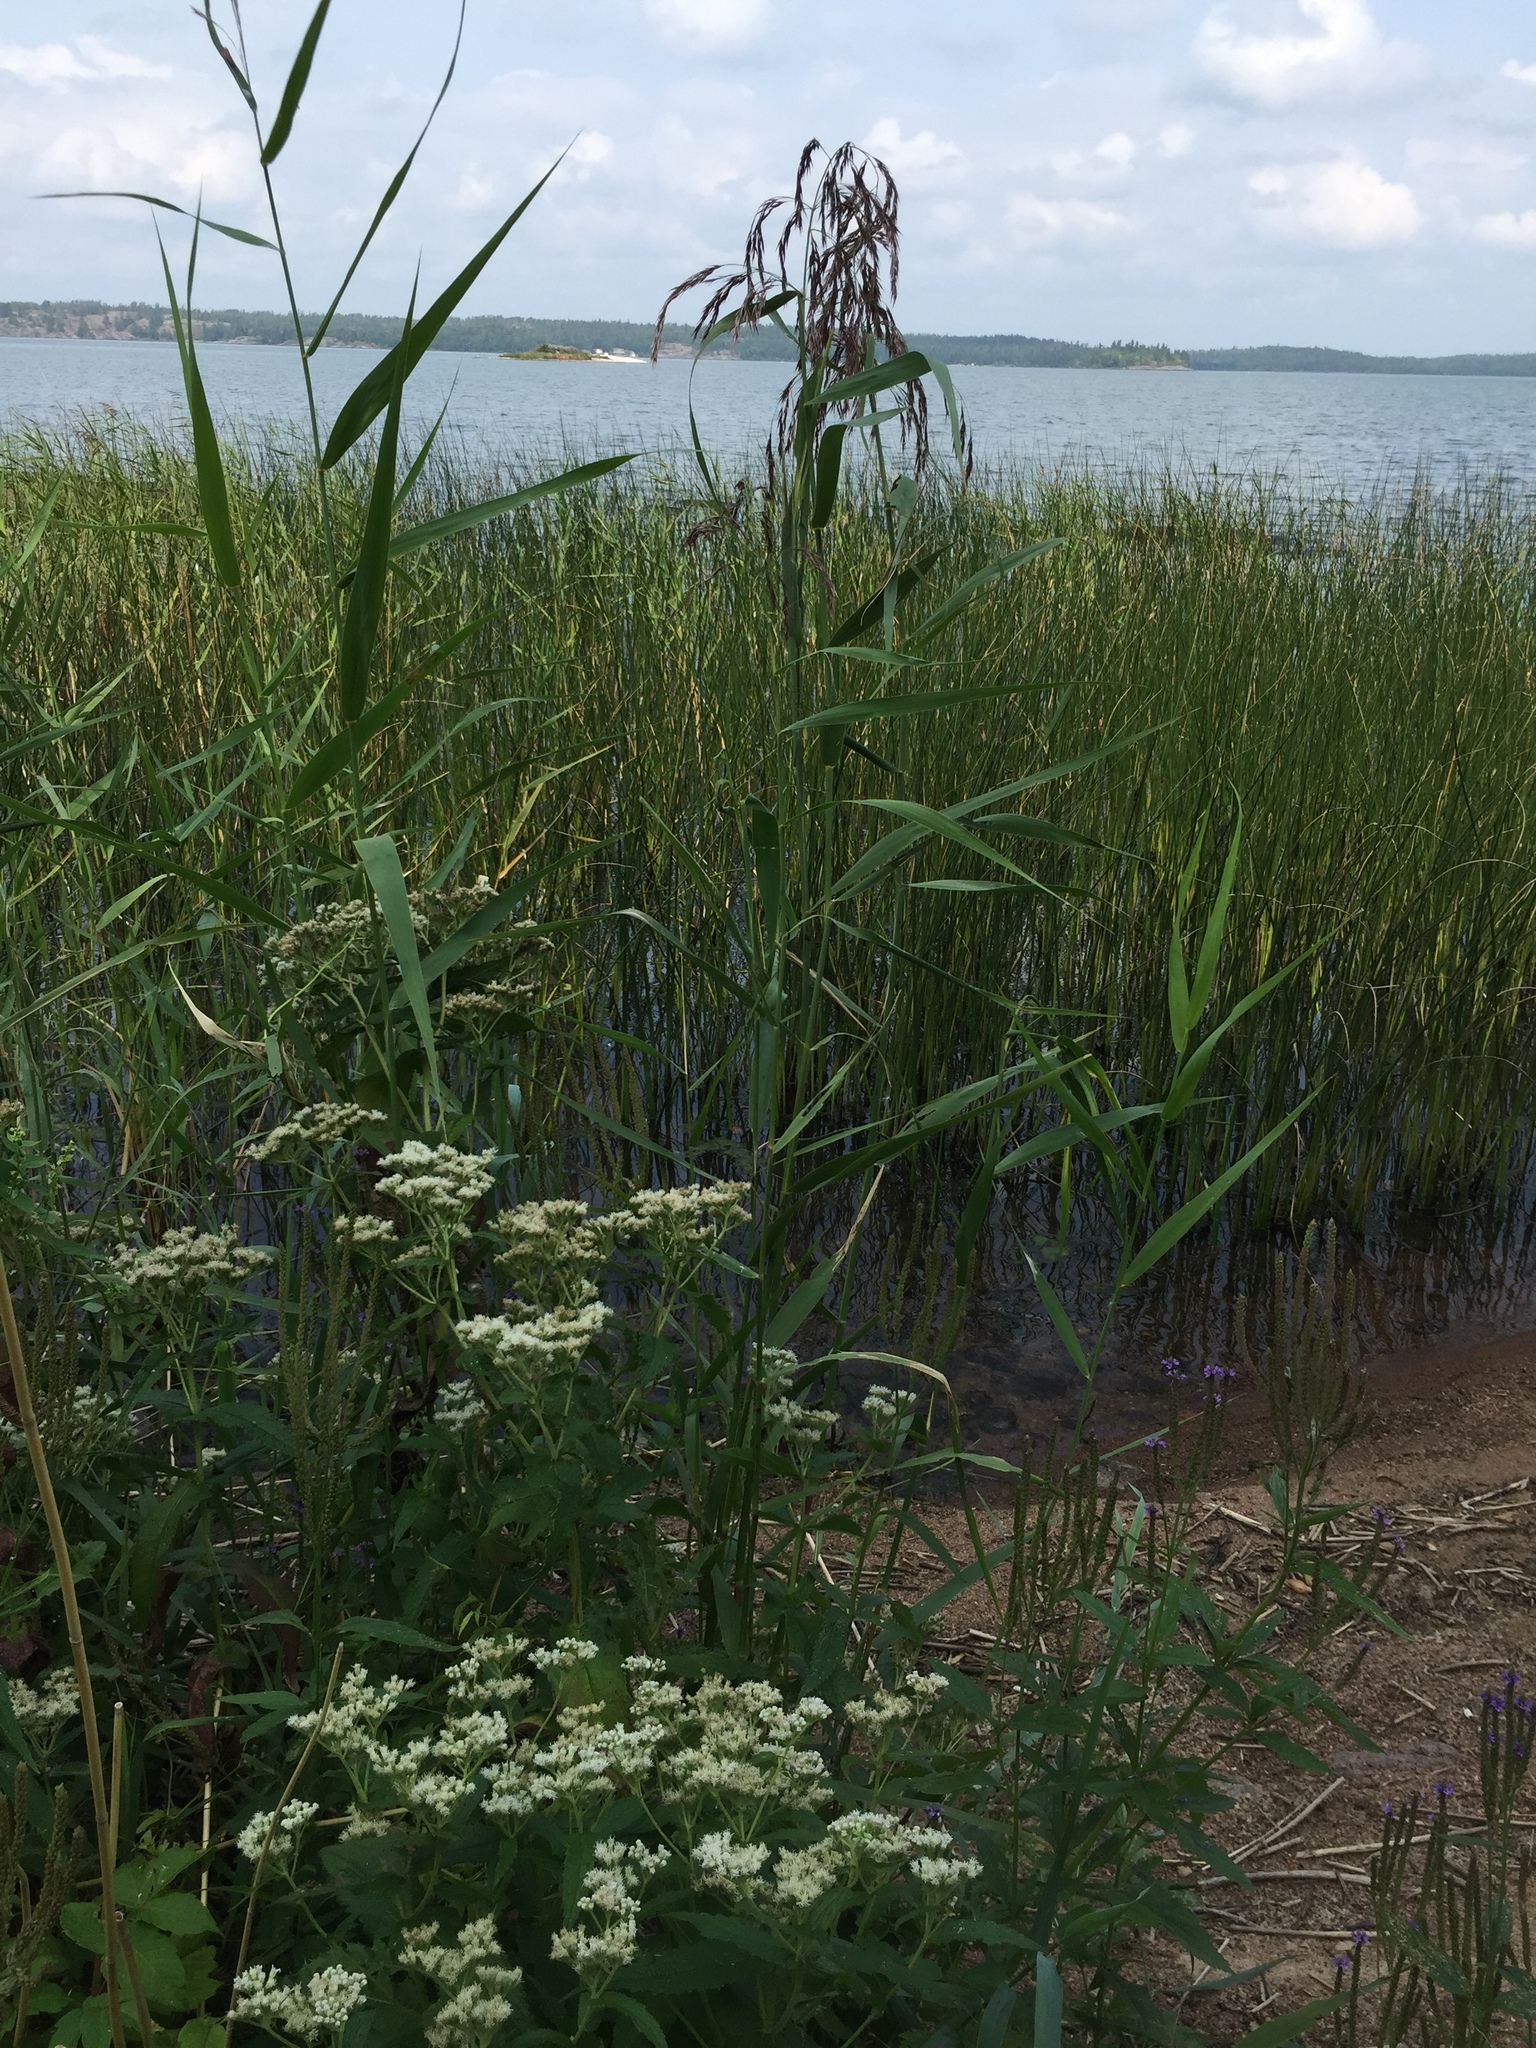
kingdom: Plantae
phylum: Tracheophyta
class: Liliopsida
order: Poales
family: Poaceae
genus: Phragmites
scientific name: Phragmites australis
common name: Common reed
